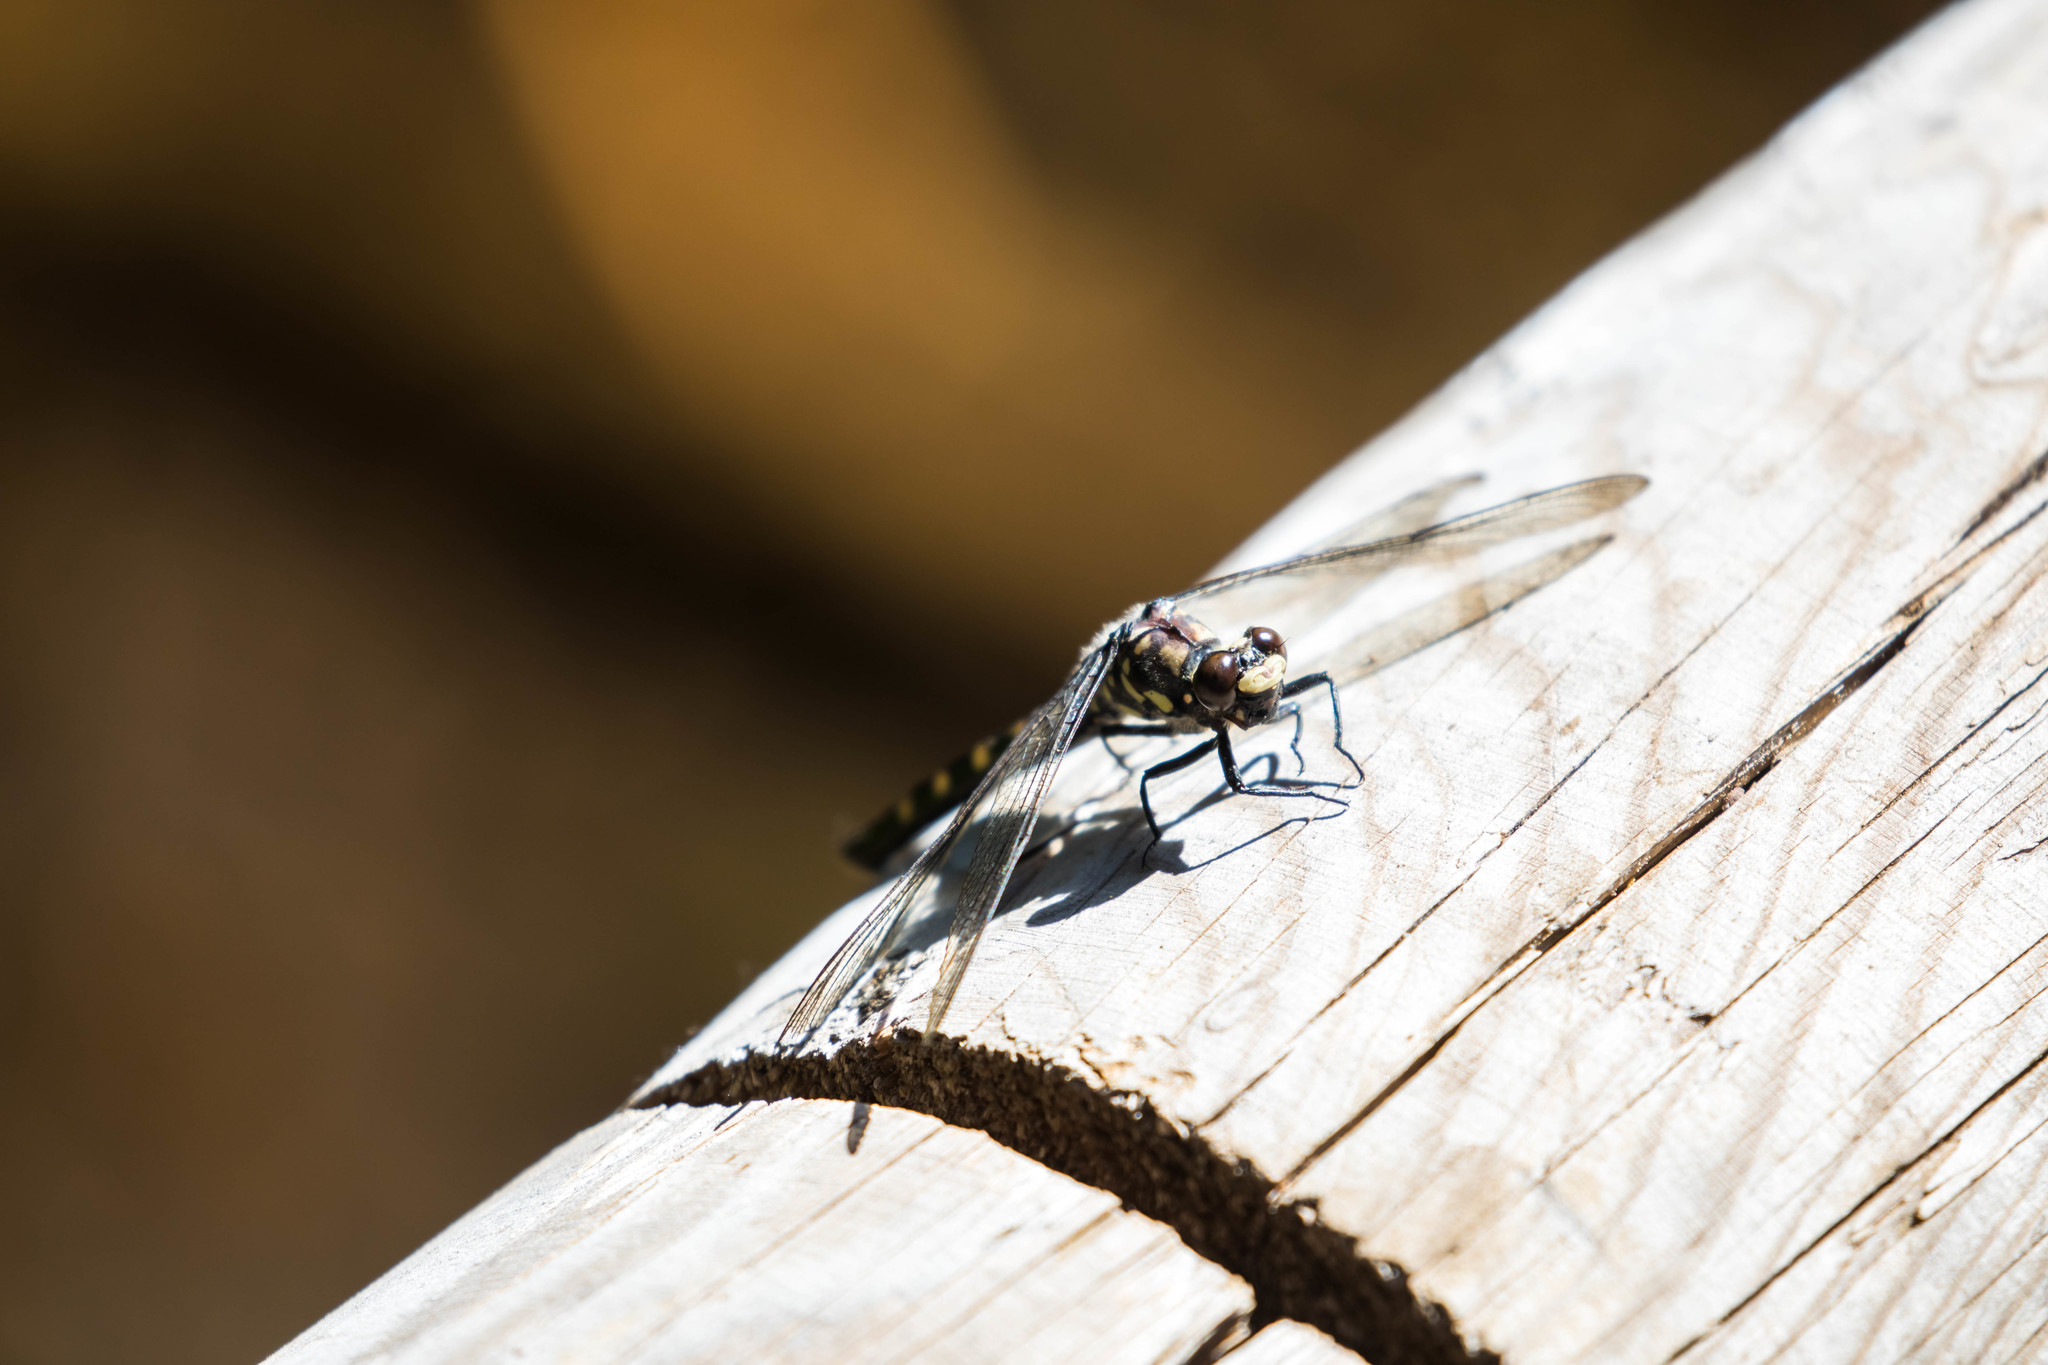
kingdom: Animalia
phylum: Arthropoda
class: Insecta
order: Odonata
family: Petaluridae
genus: Tanypteryx
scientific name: Tanypteryx hageni
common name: Black petaltail
